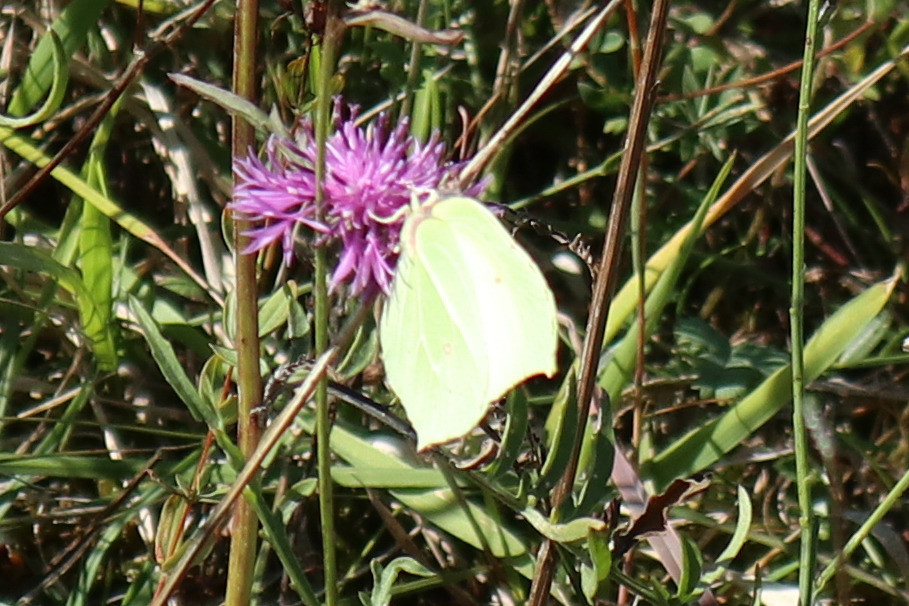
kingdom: Animalia
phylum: Arthropoda
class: Insecta
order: Lepidoptera
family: Pieridae
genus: Gonepteryx
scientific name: Gonepteryx rhamni
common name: Brimstone
